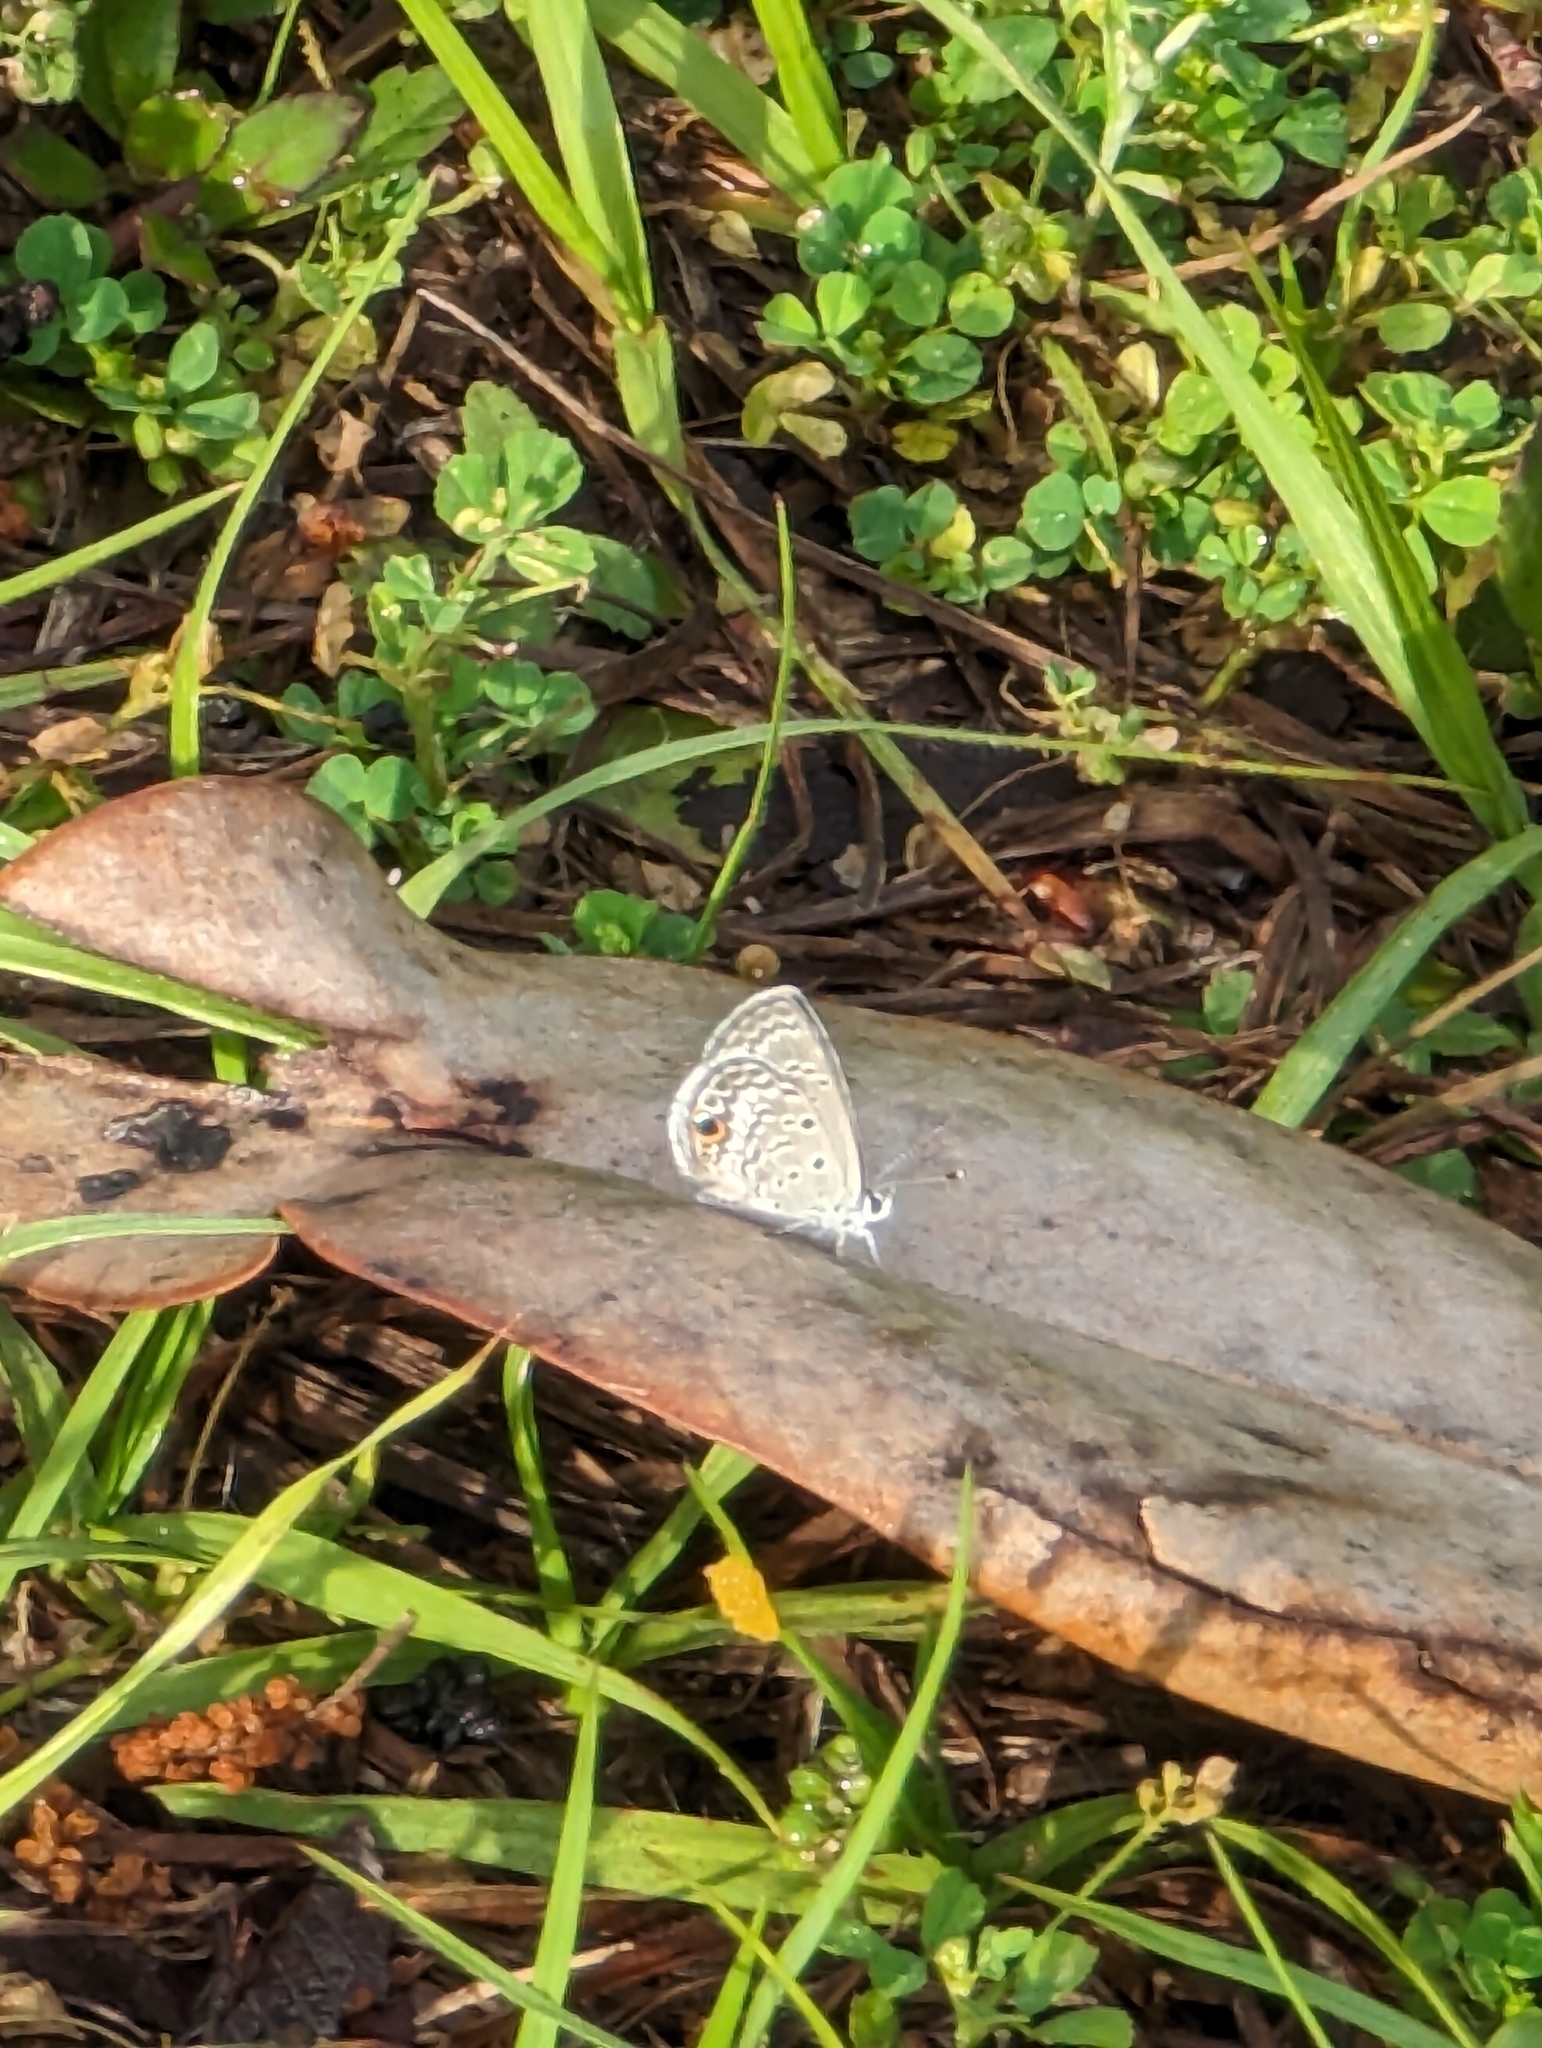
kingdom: Animalia
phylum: Arthropoda
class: Insecta
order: Lepidoptera
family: Lycaenidae
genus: Hemiargus
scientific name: Hemiargus ceraunus
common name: Ceraunus blue
